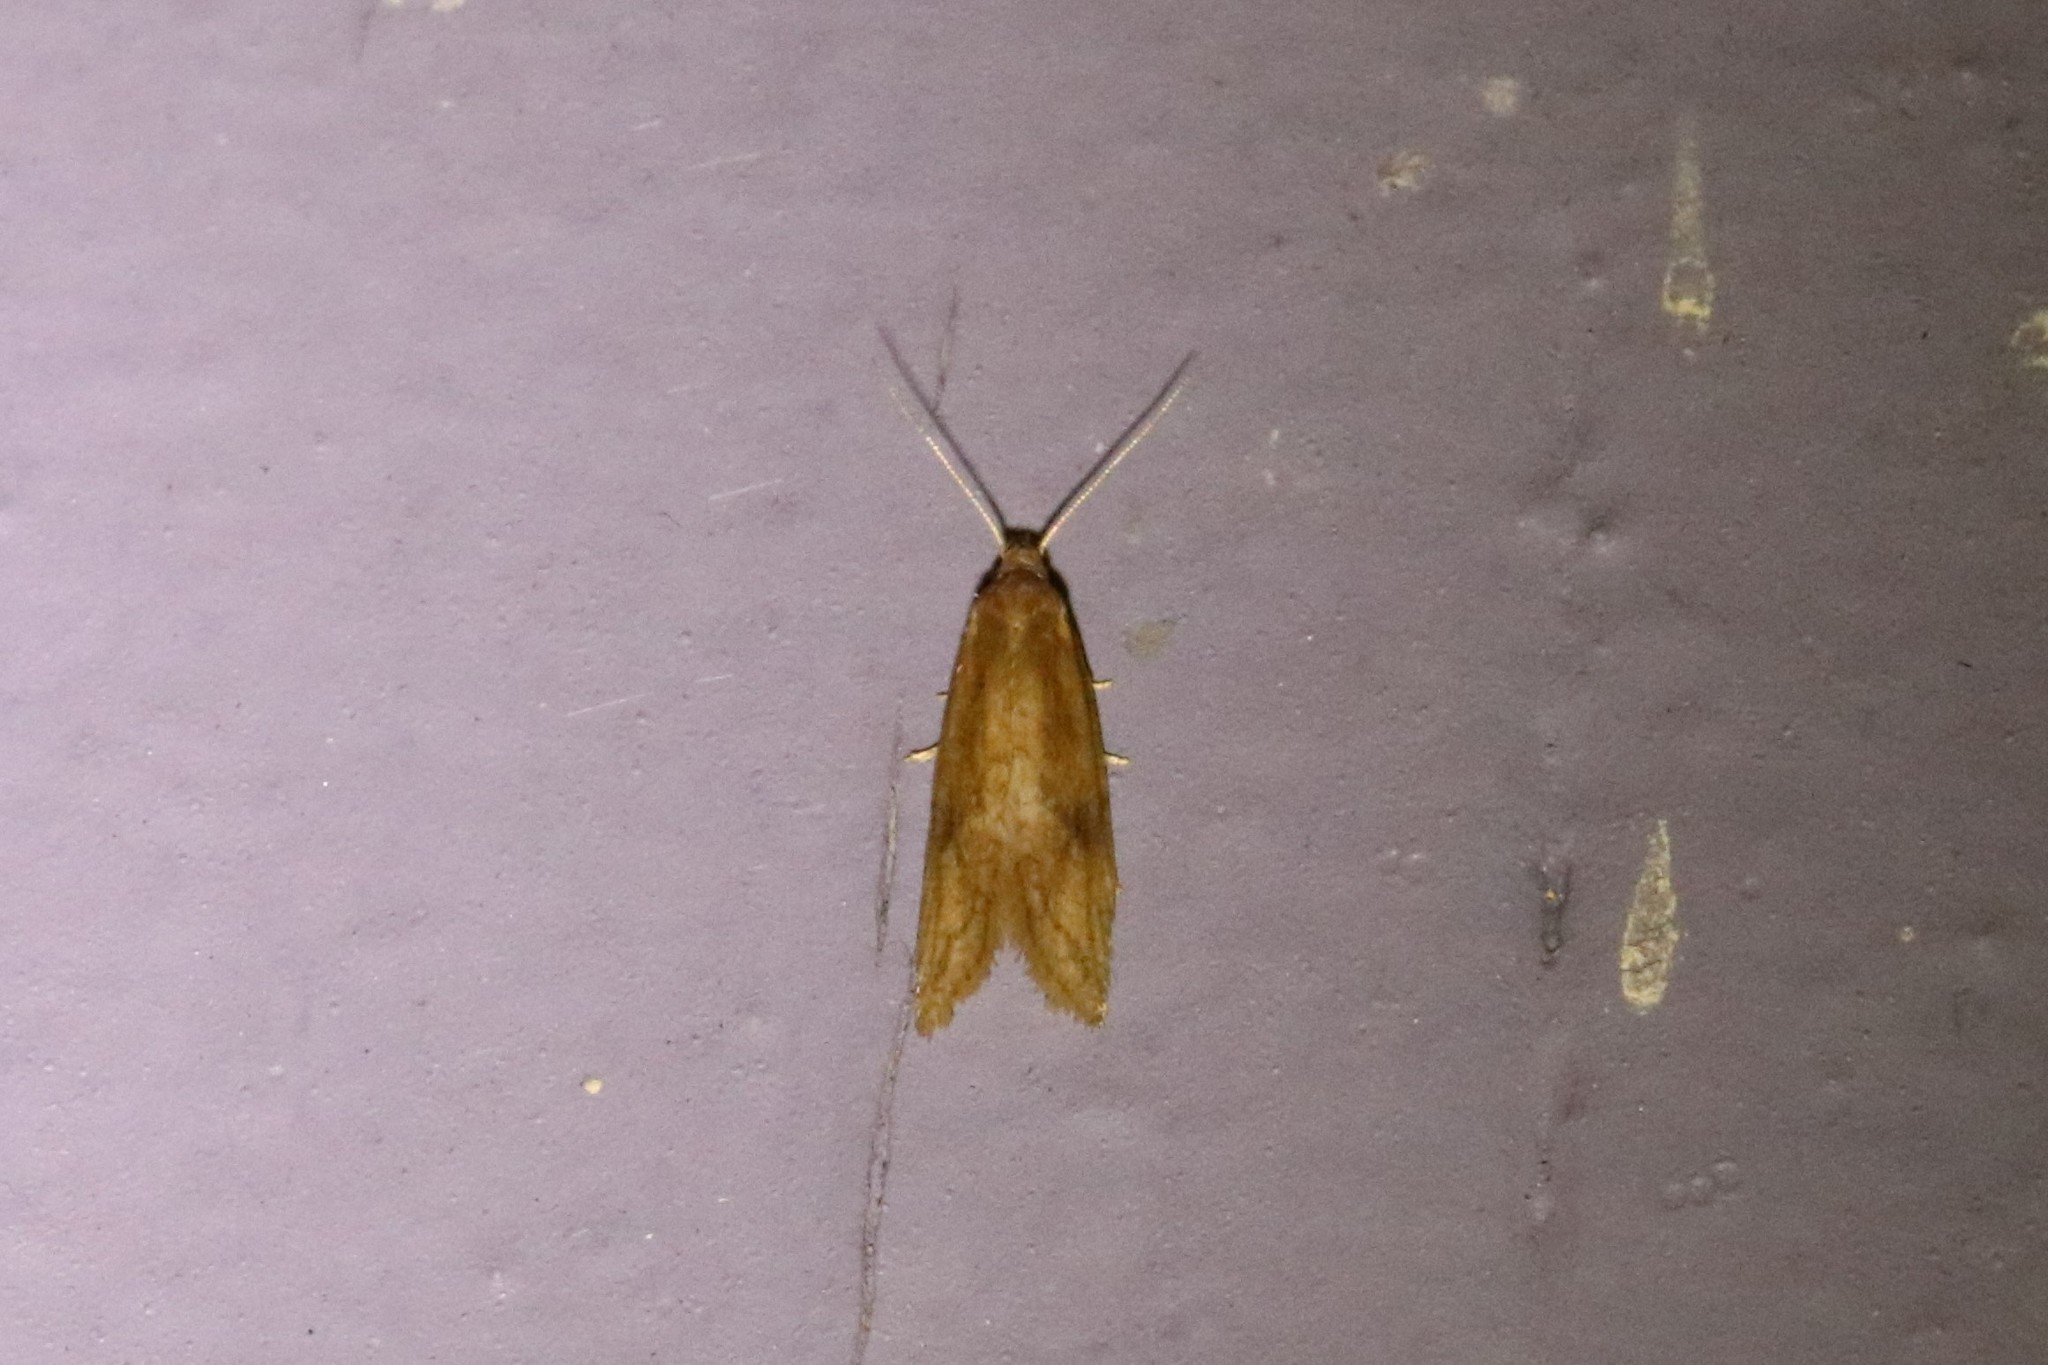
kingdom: Animalia
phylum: Arthropoda
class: Insecta
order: Lepidoptera
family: Tortricidae
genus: Aethes
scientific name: Aethes biscana
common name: Reddish aethes
